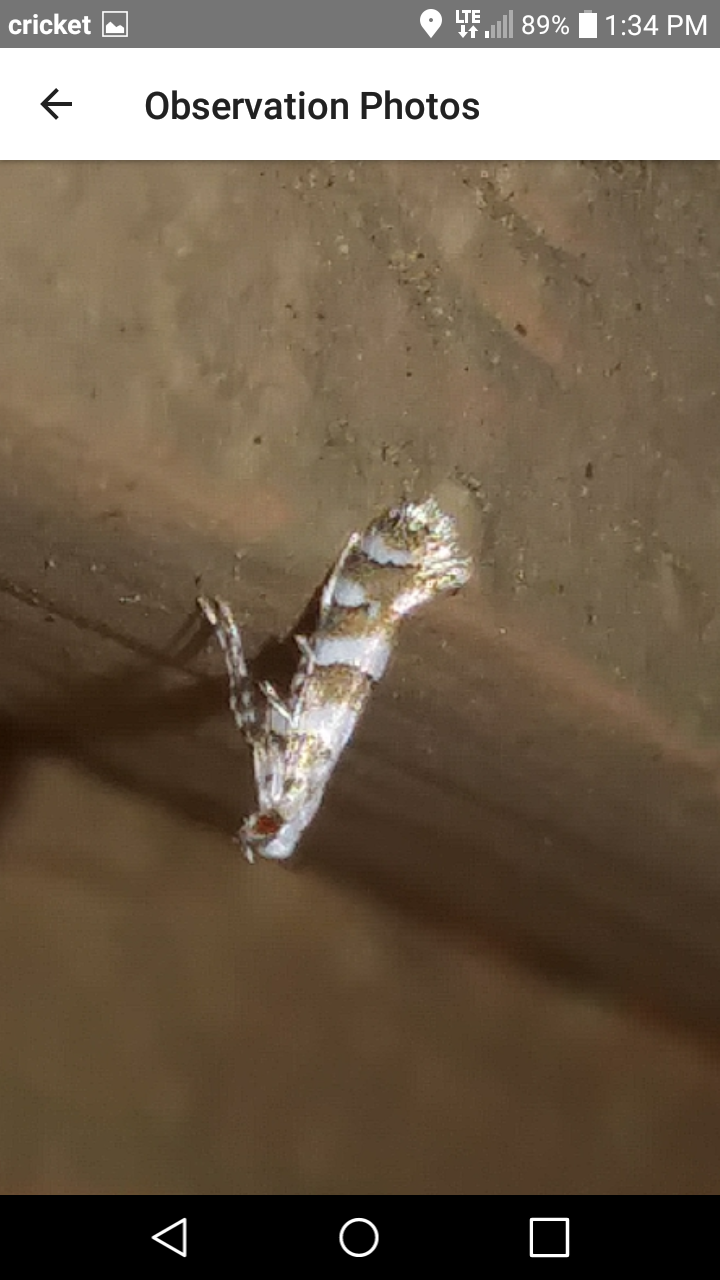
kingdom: Animalia
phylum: Arthropoda
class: Insecta
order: Lepidoptera
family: Gracillariidae
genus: Marmara
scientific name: Marmara fasciella
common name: White pine barkminer moth
